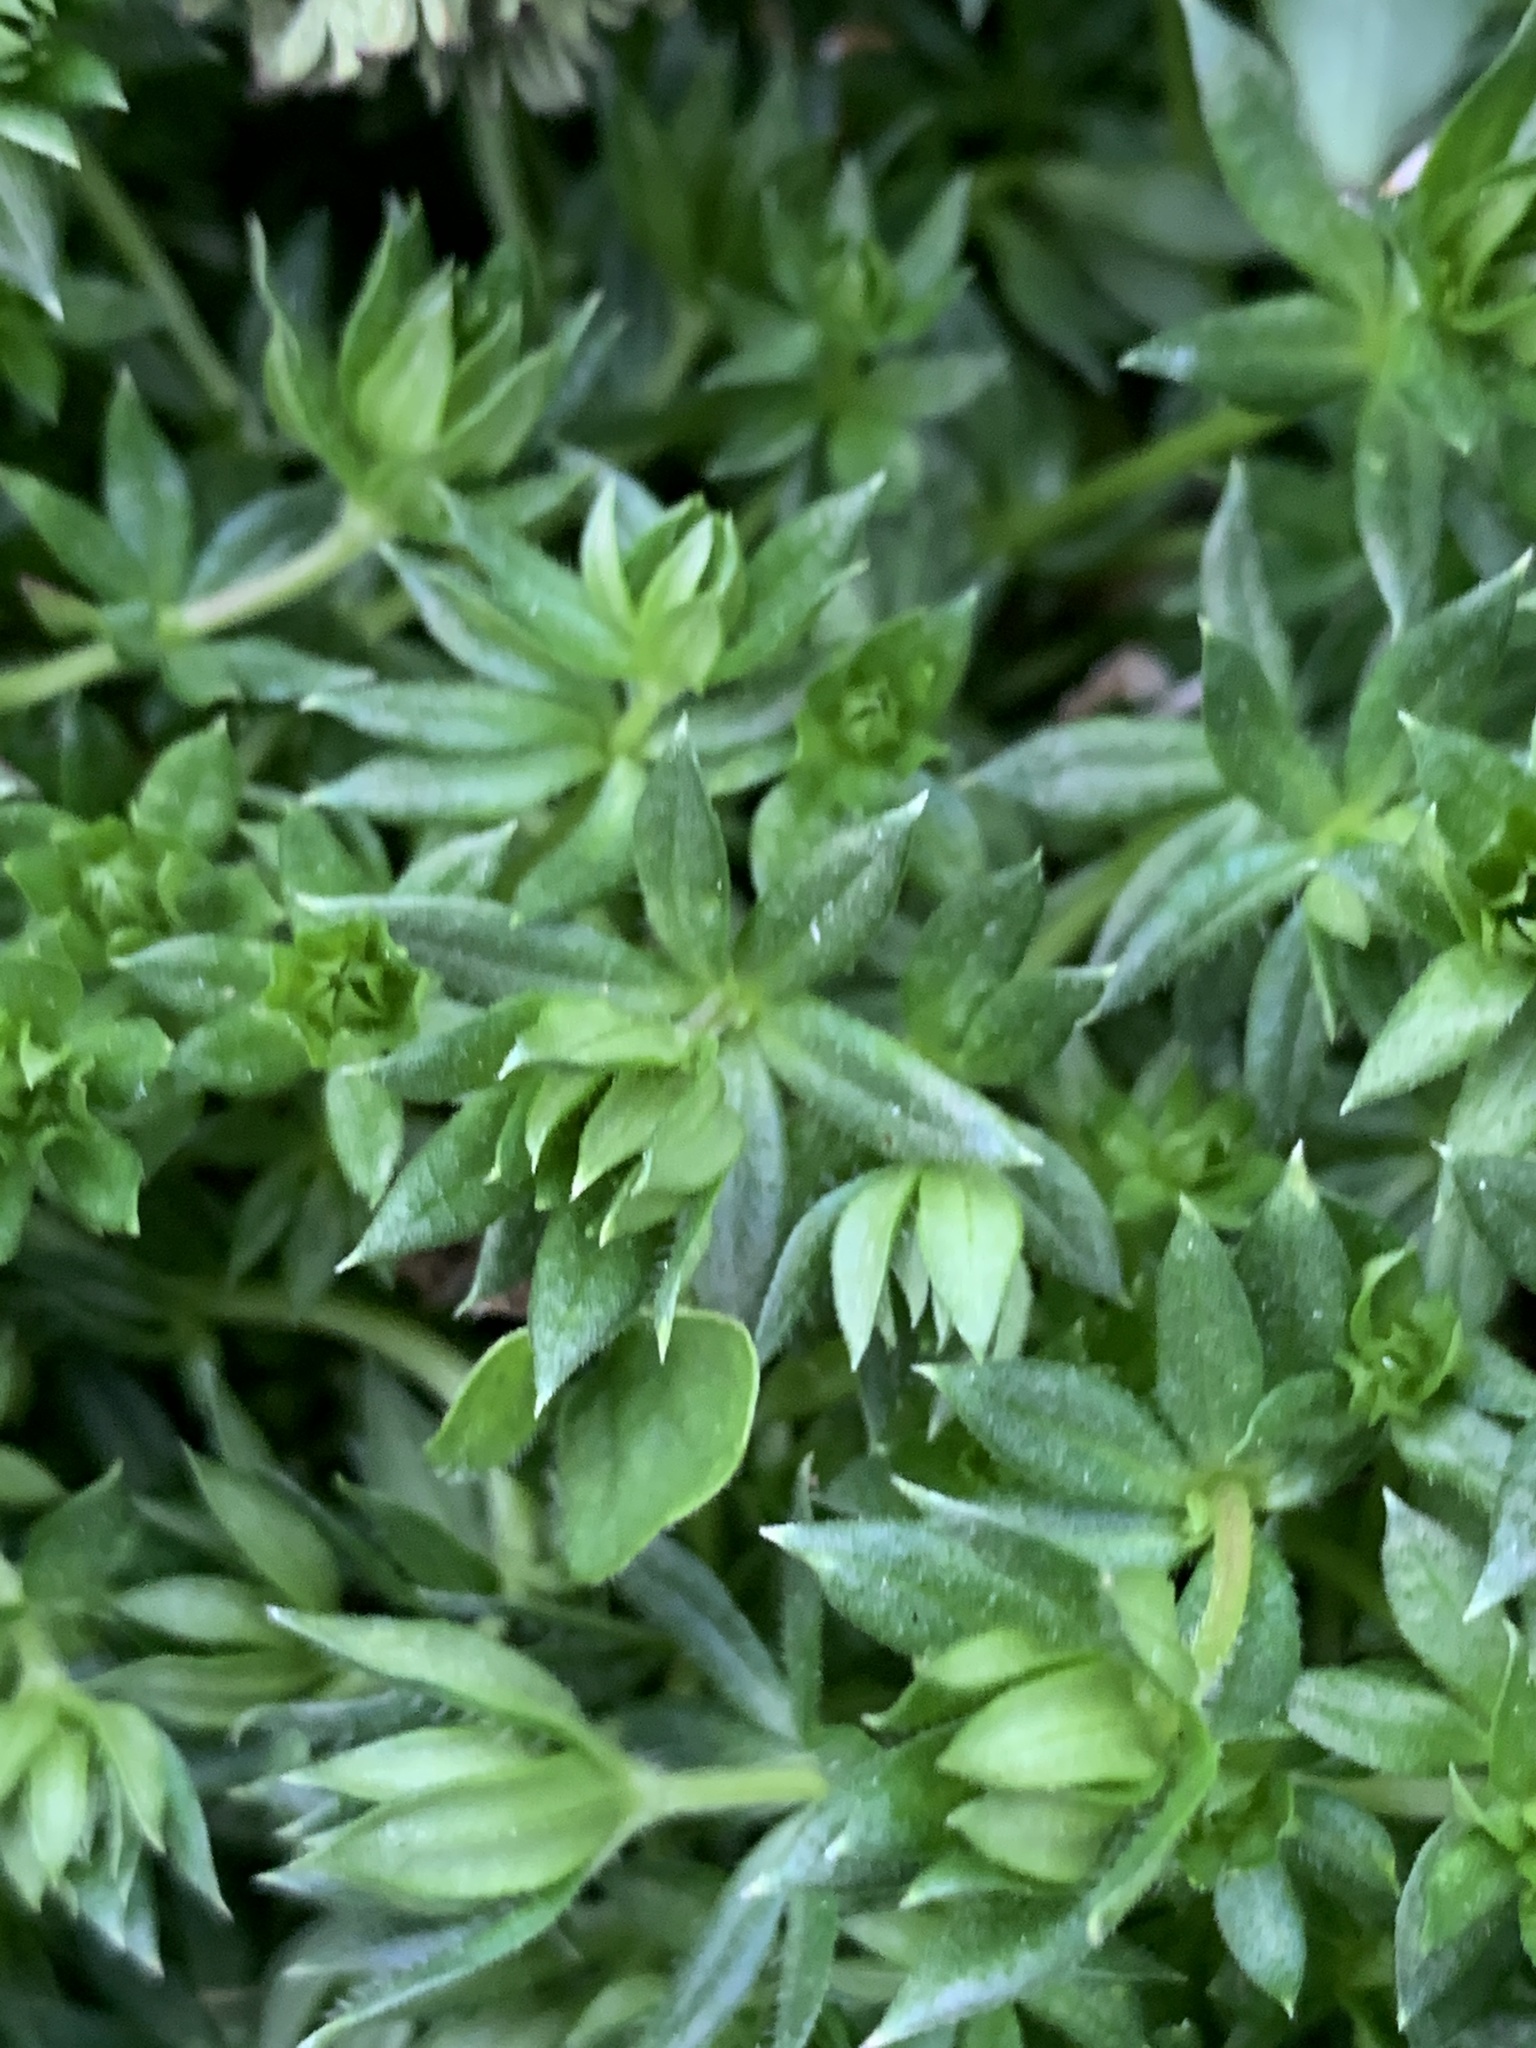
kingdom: Plantae
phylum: Tracheophyta
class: Magnoliopsida
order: Gentianales
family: Rubiaceae
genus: Sherardia
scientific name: Sherardia arvensis
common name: Field madder
